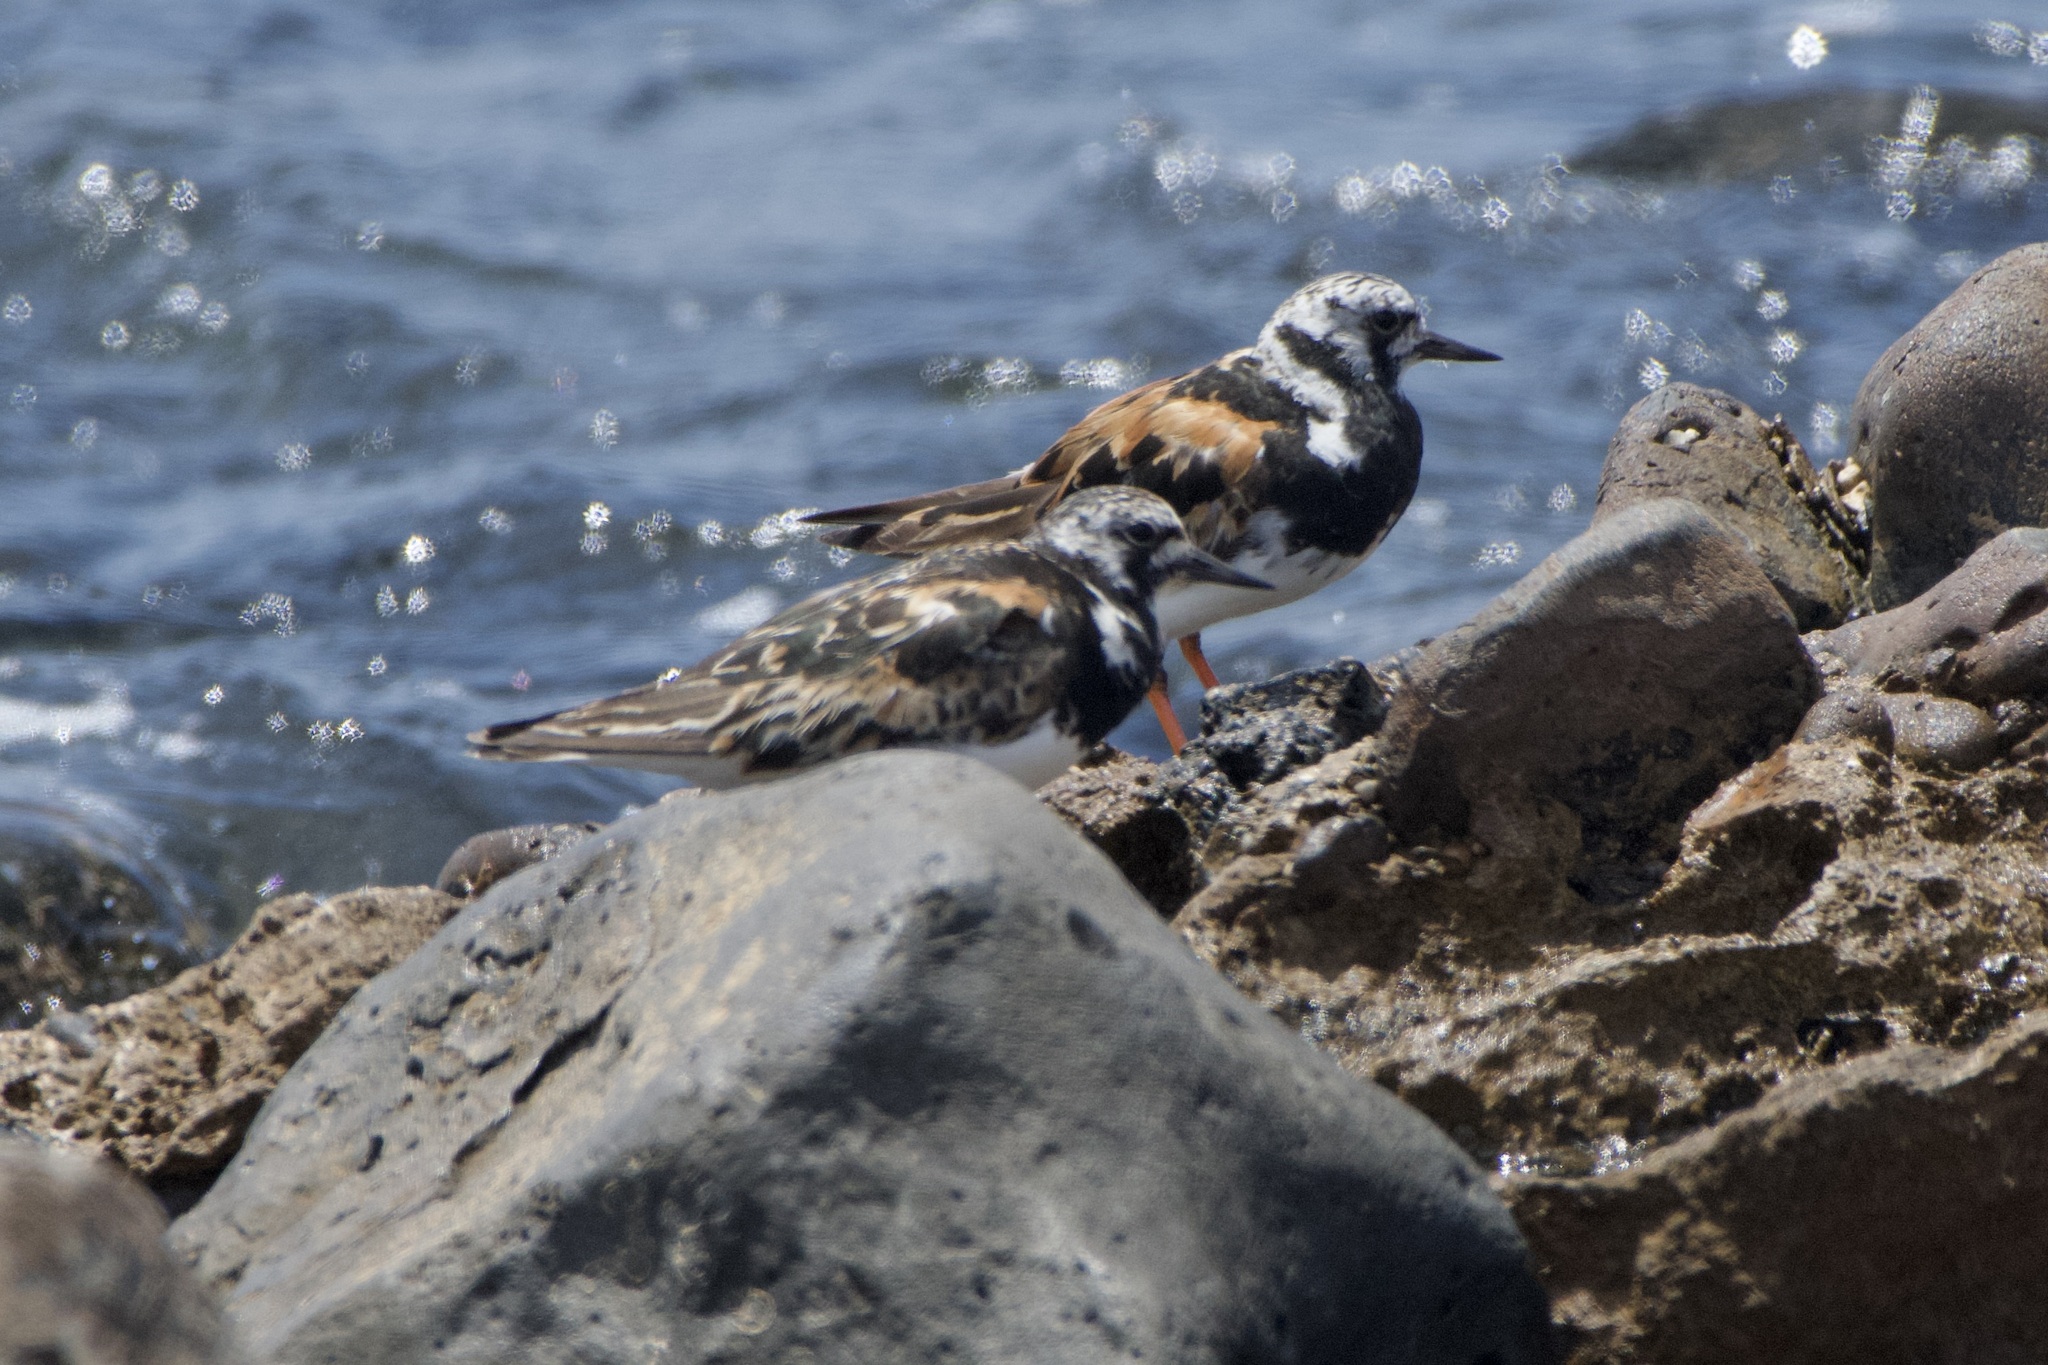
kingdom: Animalia
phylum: Chordata
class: Aves
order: Charadriiformes
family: Scolopacidae
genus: Arenaria
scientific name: Arenaria interpres
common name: Ruddy turnstone
